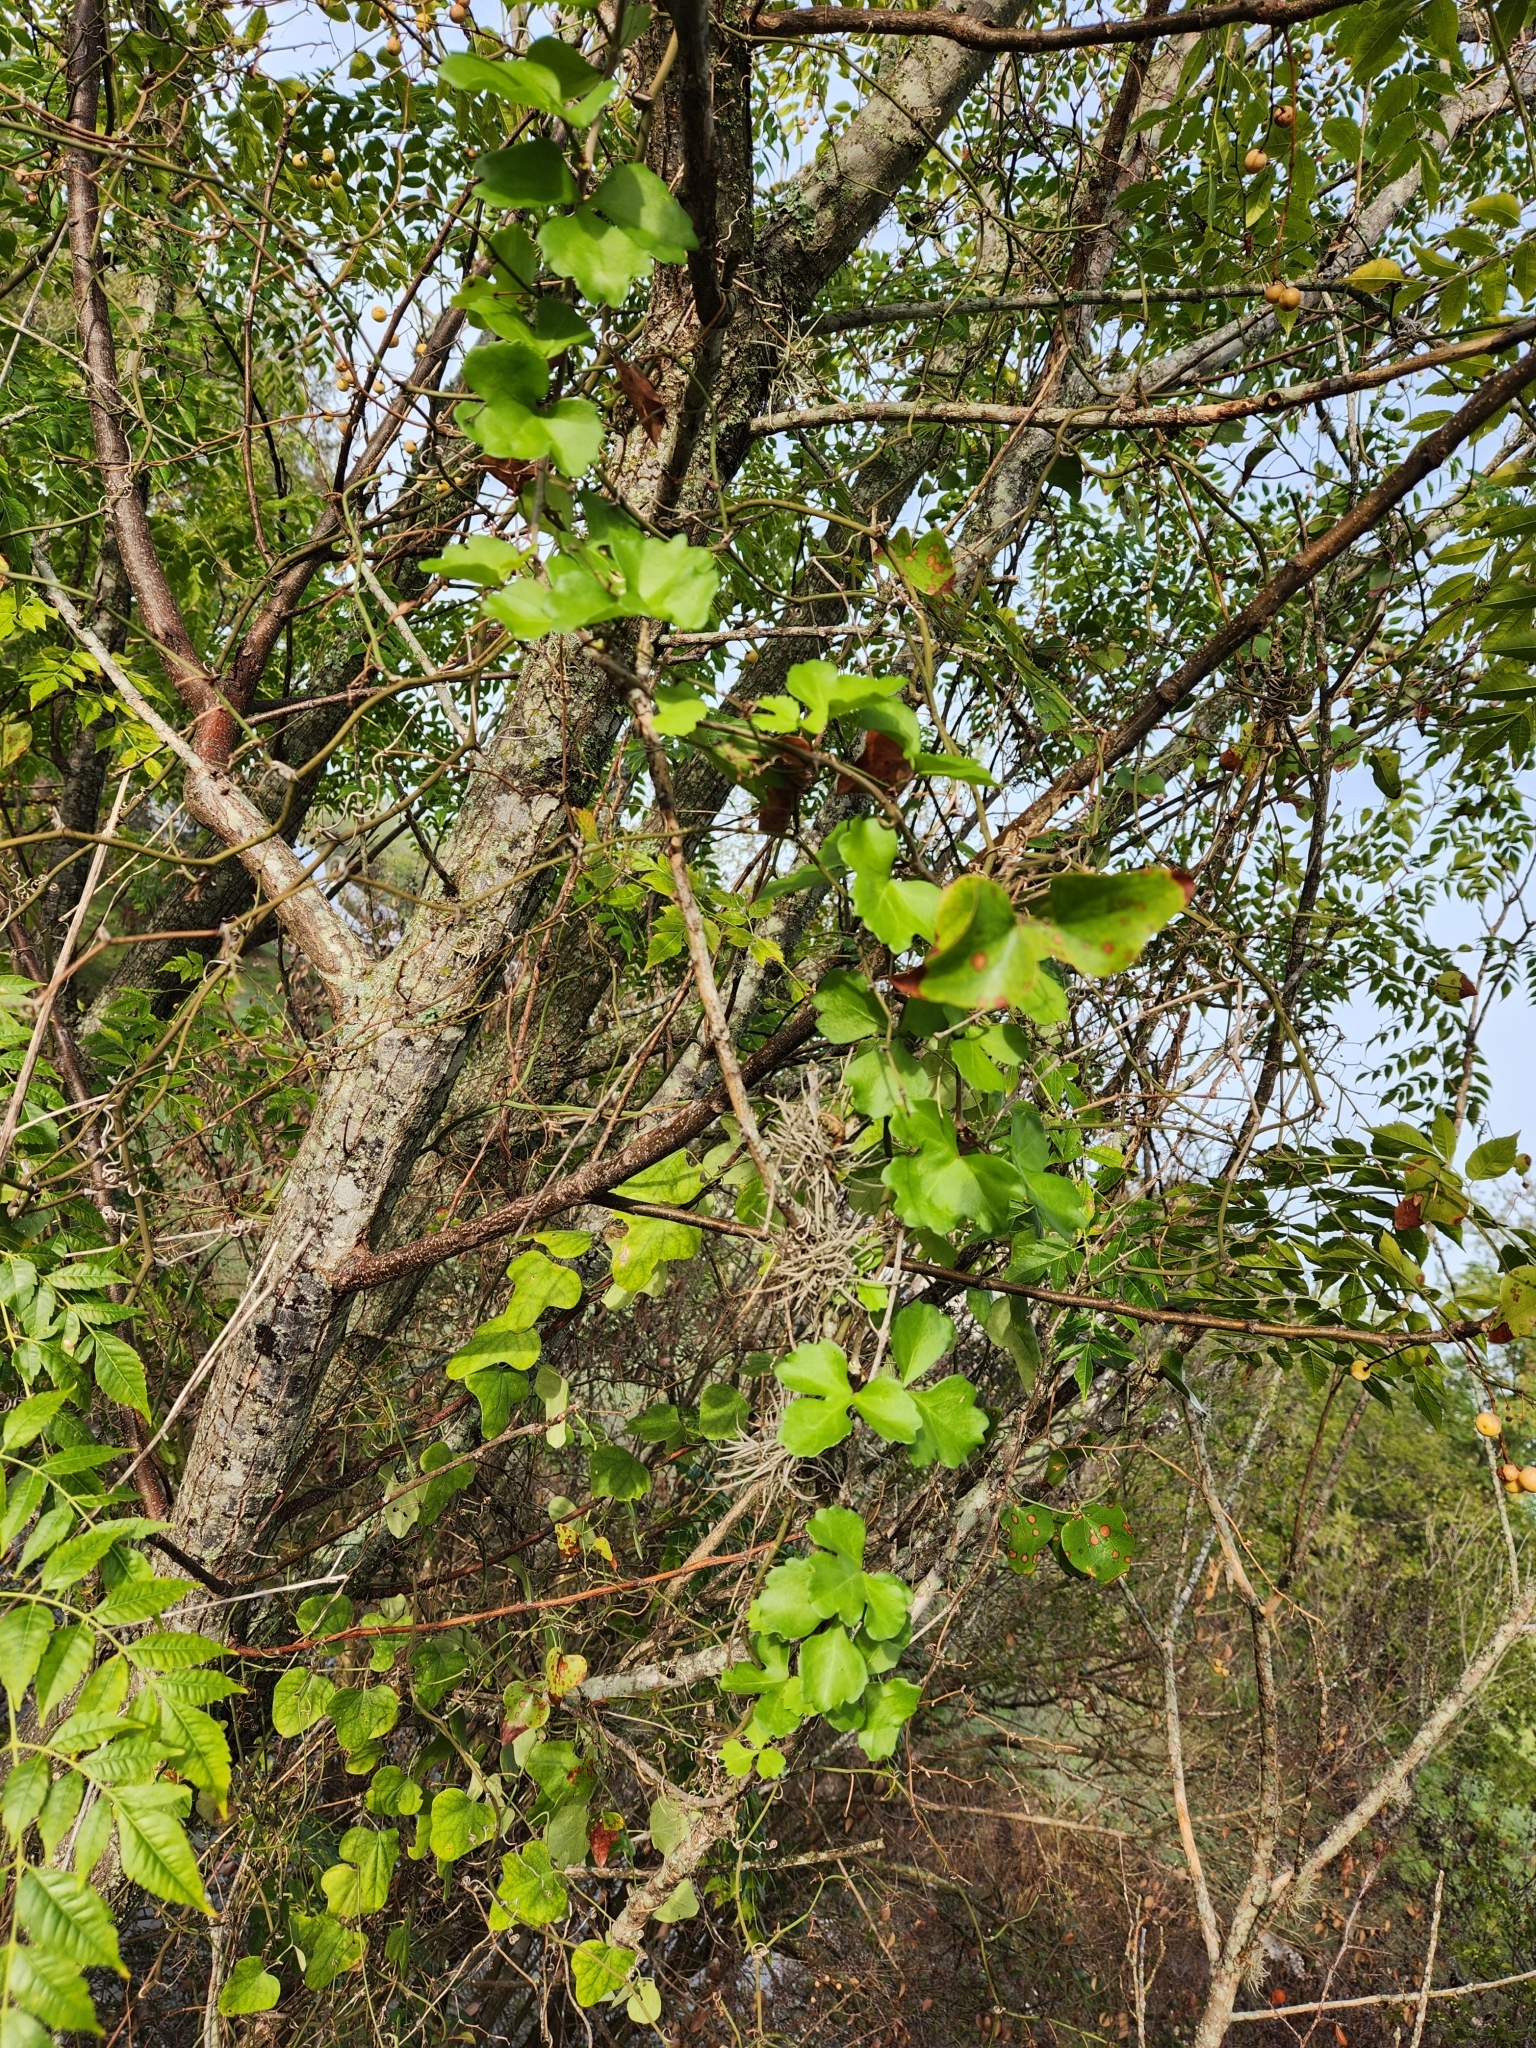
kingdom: Plantae
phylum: Tracheophyta
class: Magnoliopsida
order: Vitales
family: Vitaceae
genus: Cissus
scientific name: Cissus trifoliata
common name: Vine-sorrel
